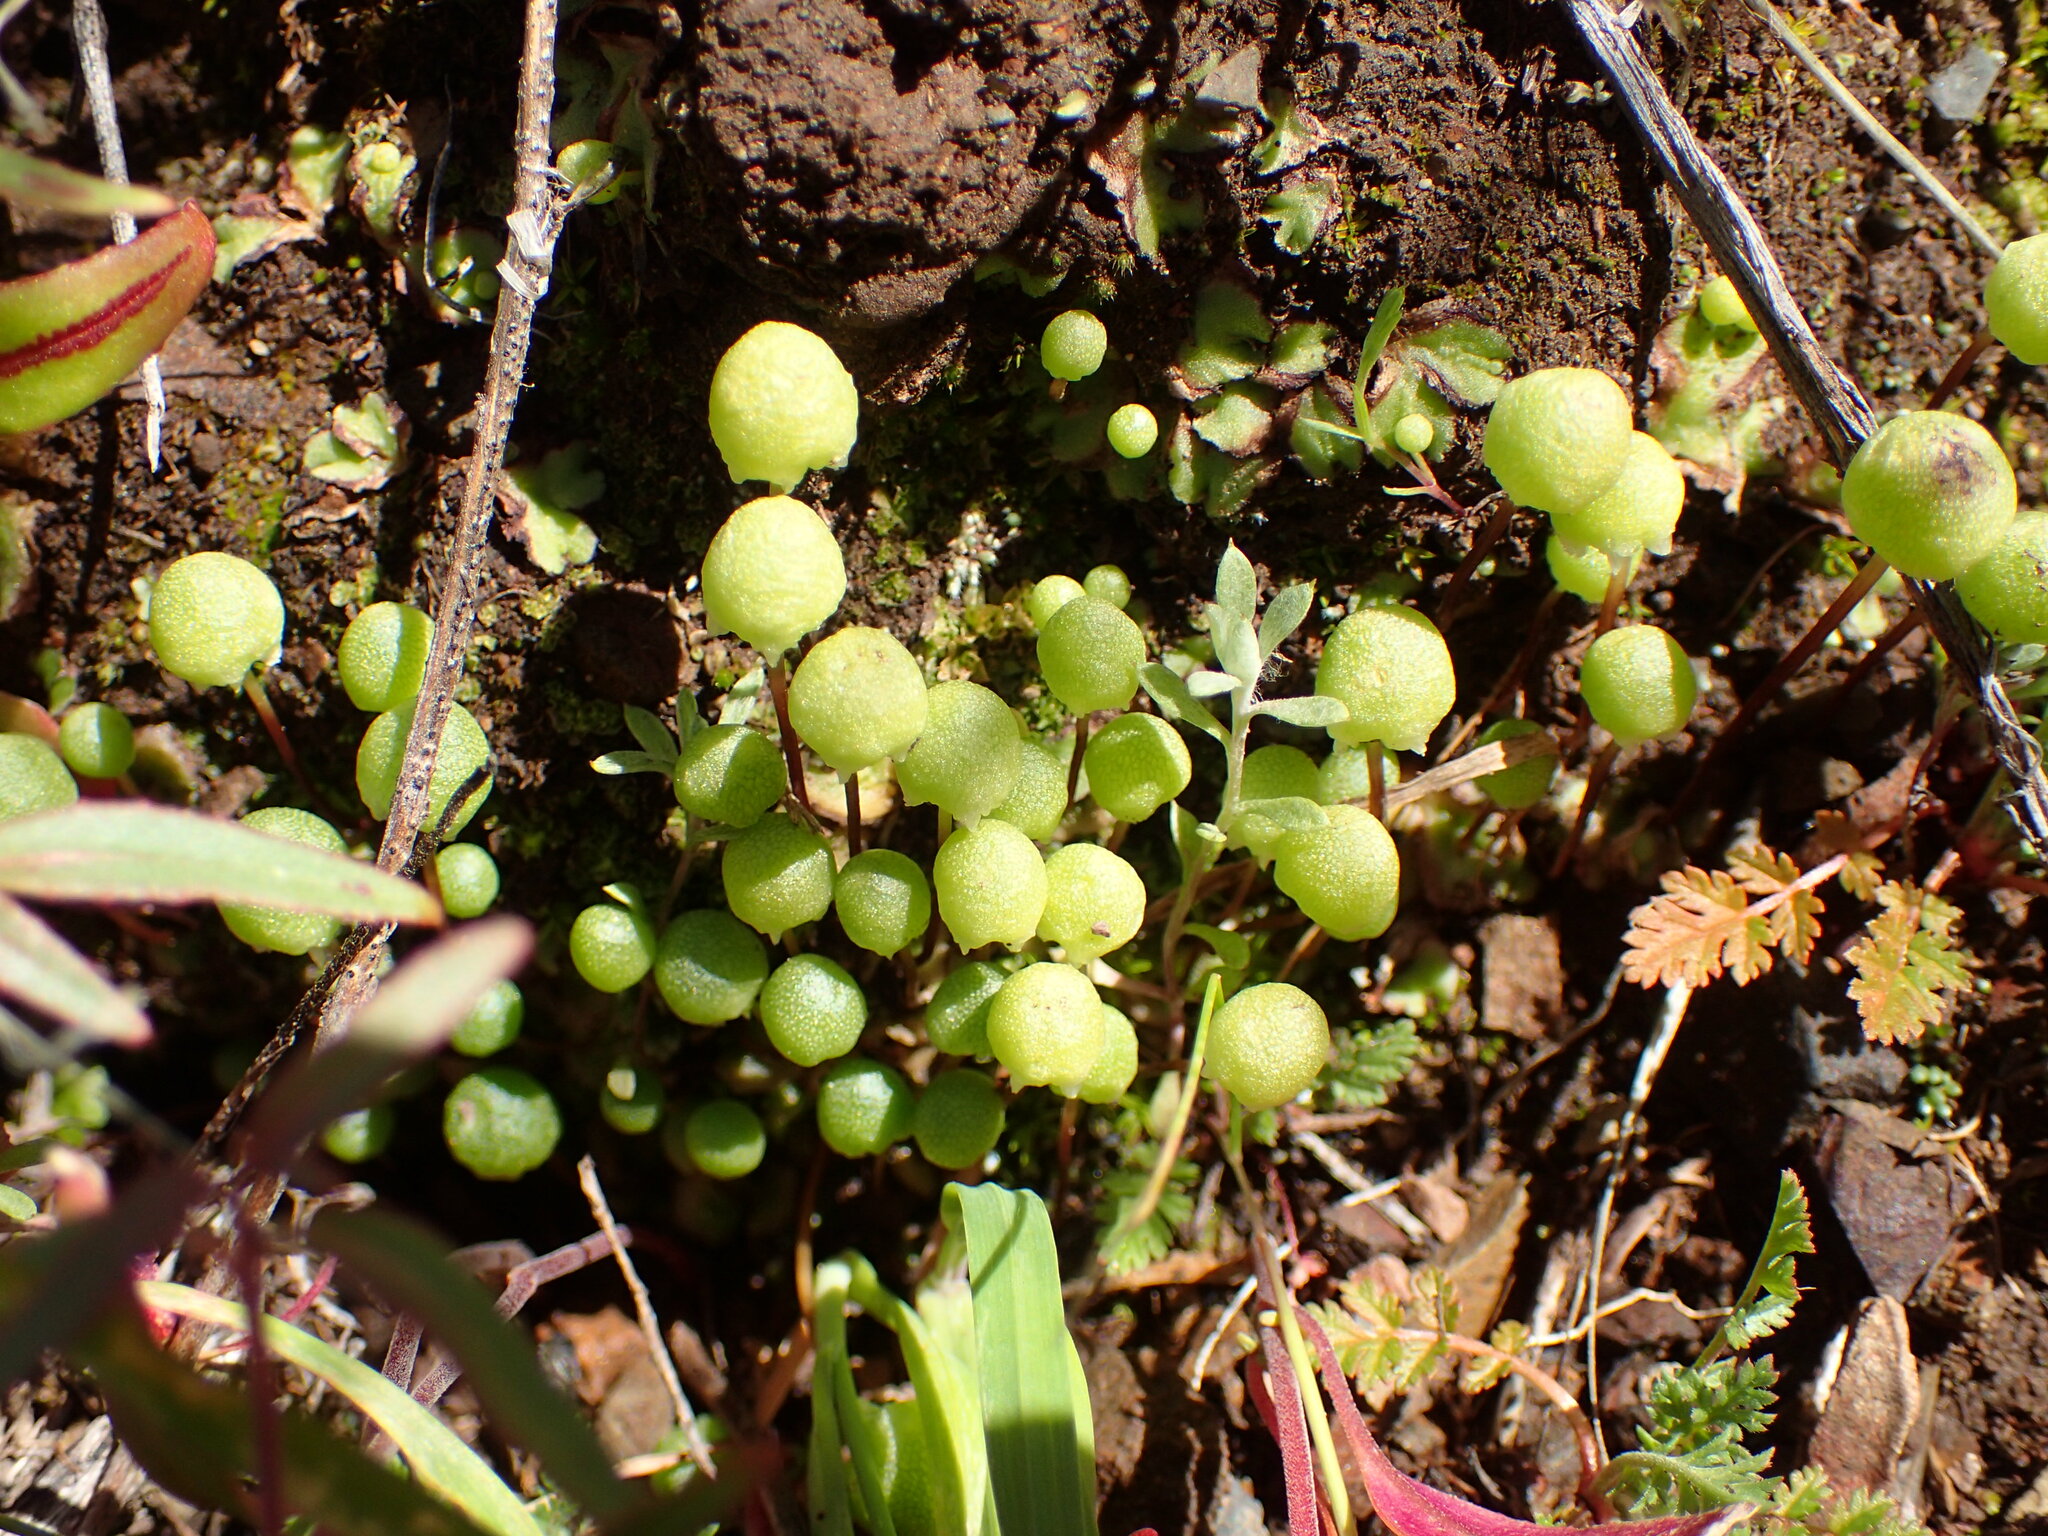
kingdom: Plantae
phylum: Marchantiophyta
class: Marchantiopsida
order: Marchantiales
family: Aytoniaceae
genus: Asterella
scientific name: Asterella palmeri
